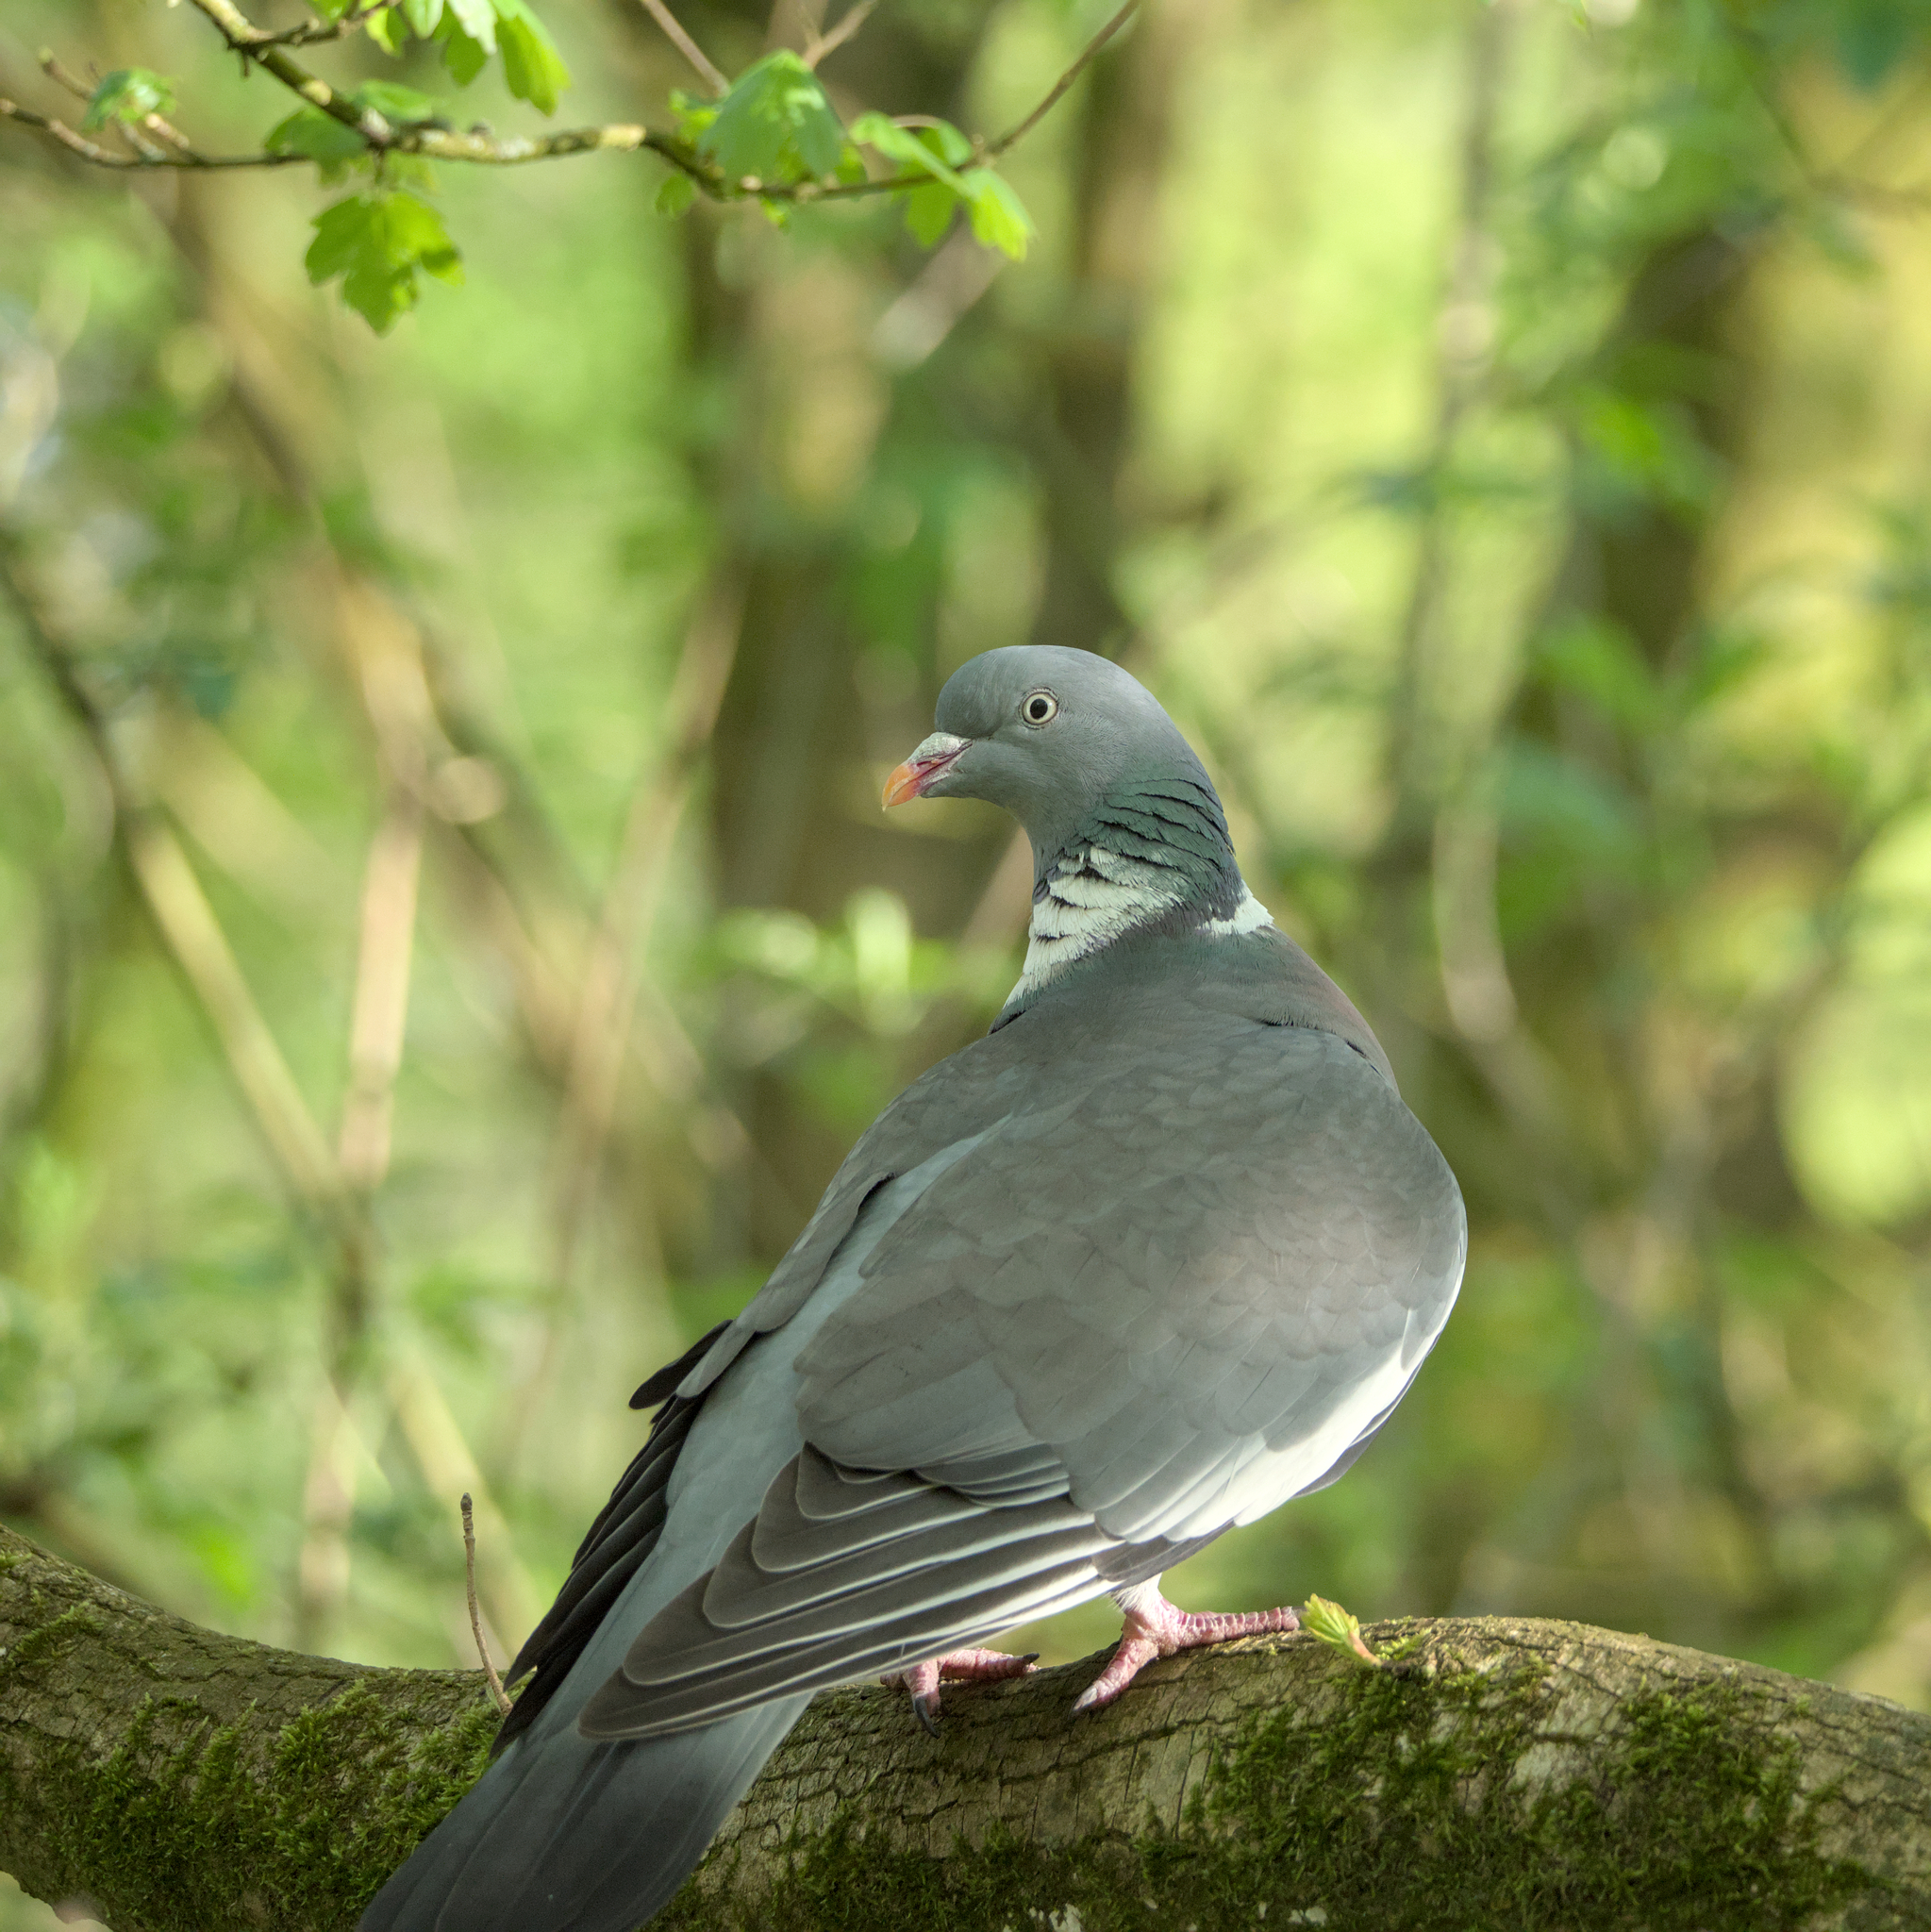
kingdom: Animalia
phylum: Chordata
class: Aves
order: Columbiformes
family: Columbidae
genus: Columba
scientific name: Columba palumbus
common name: Common wood pigeon
